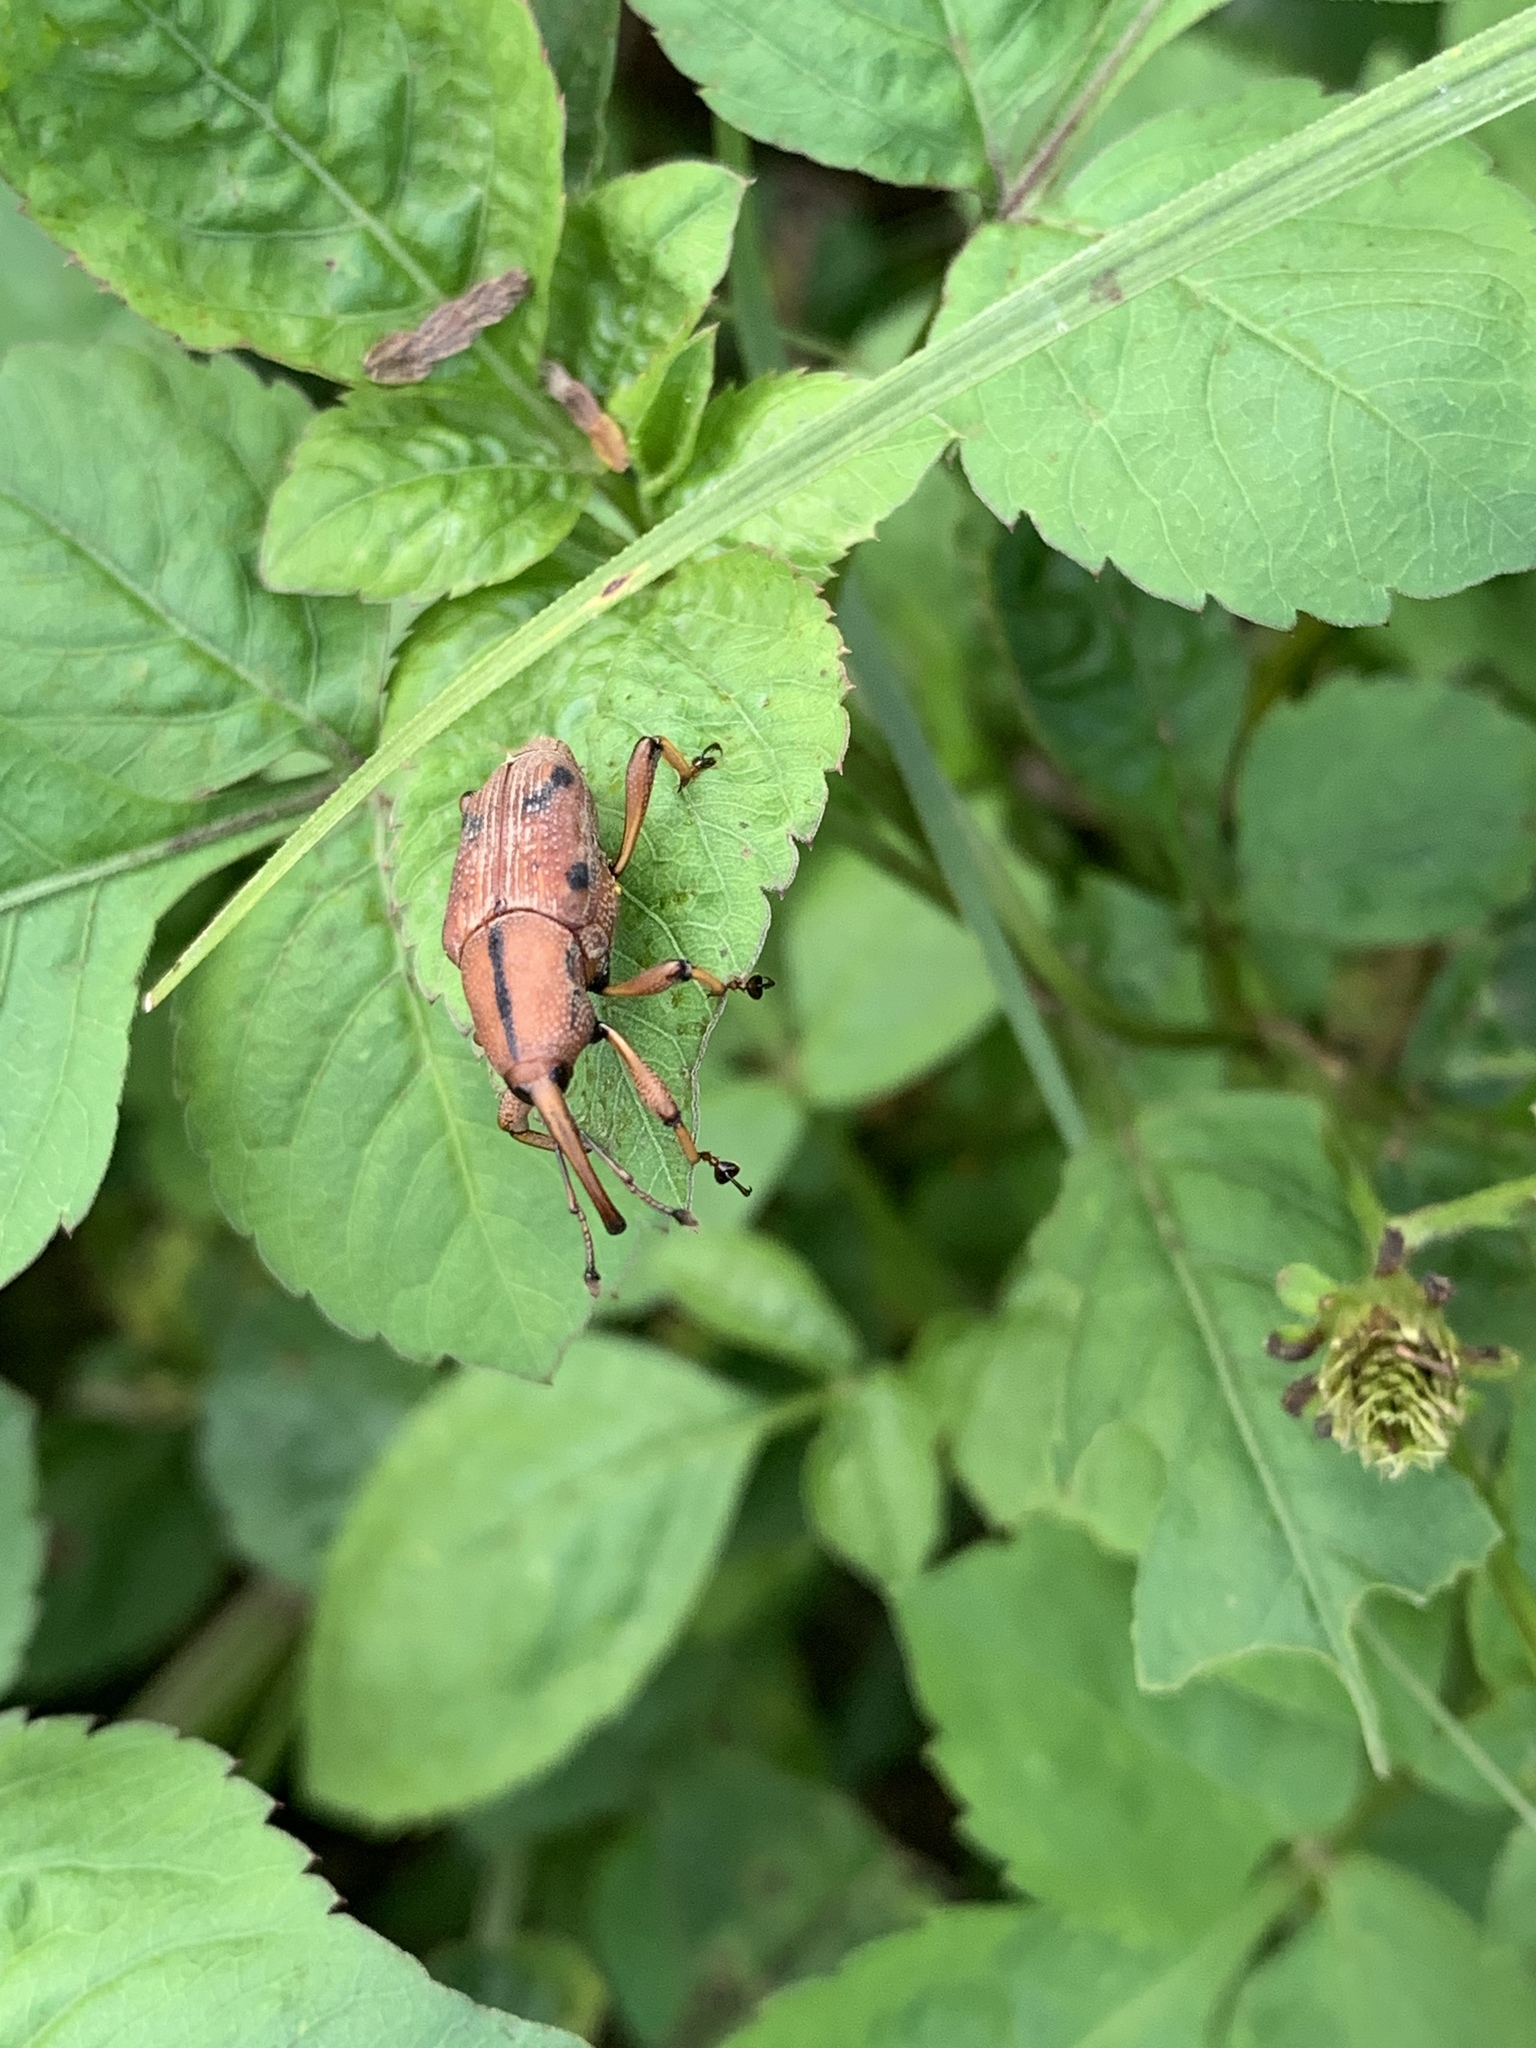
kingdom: Animalia
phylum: Arthropoda
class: Insecta
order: Coleoptera
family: Dryophthoridae
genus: Prodioctes
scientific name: Prodioctes formosanus
